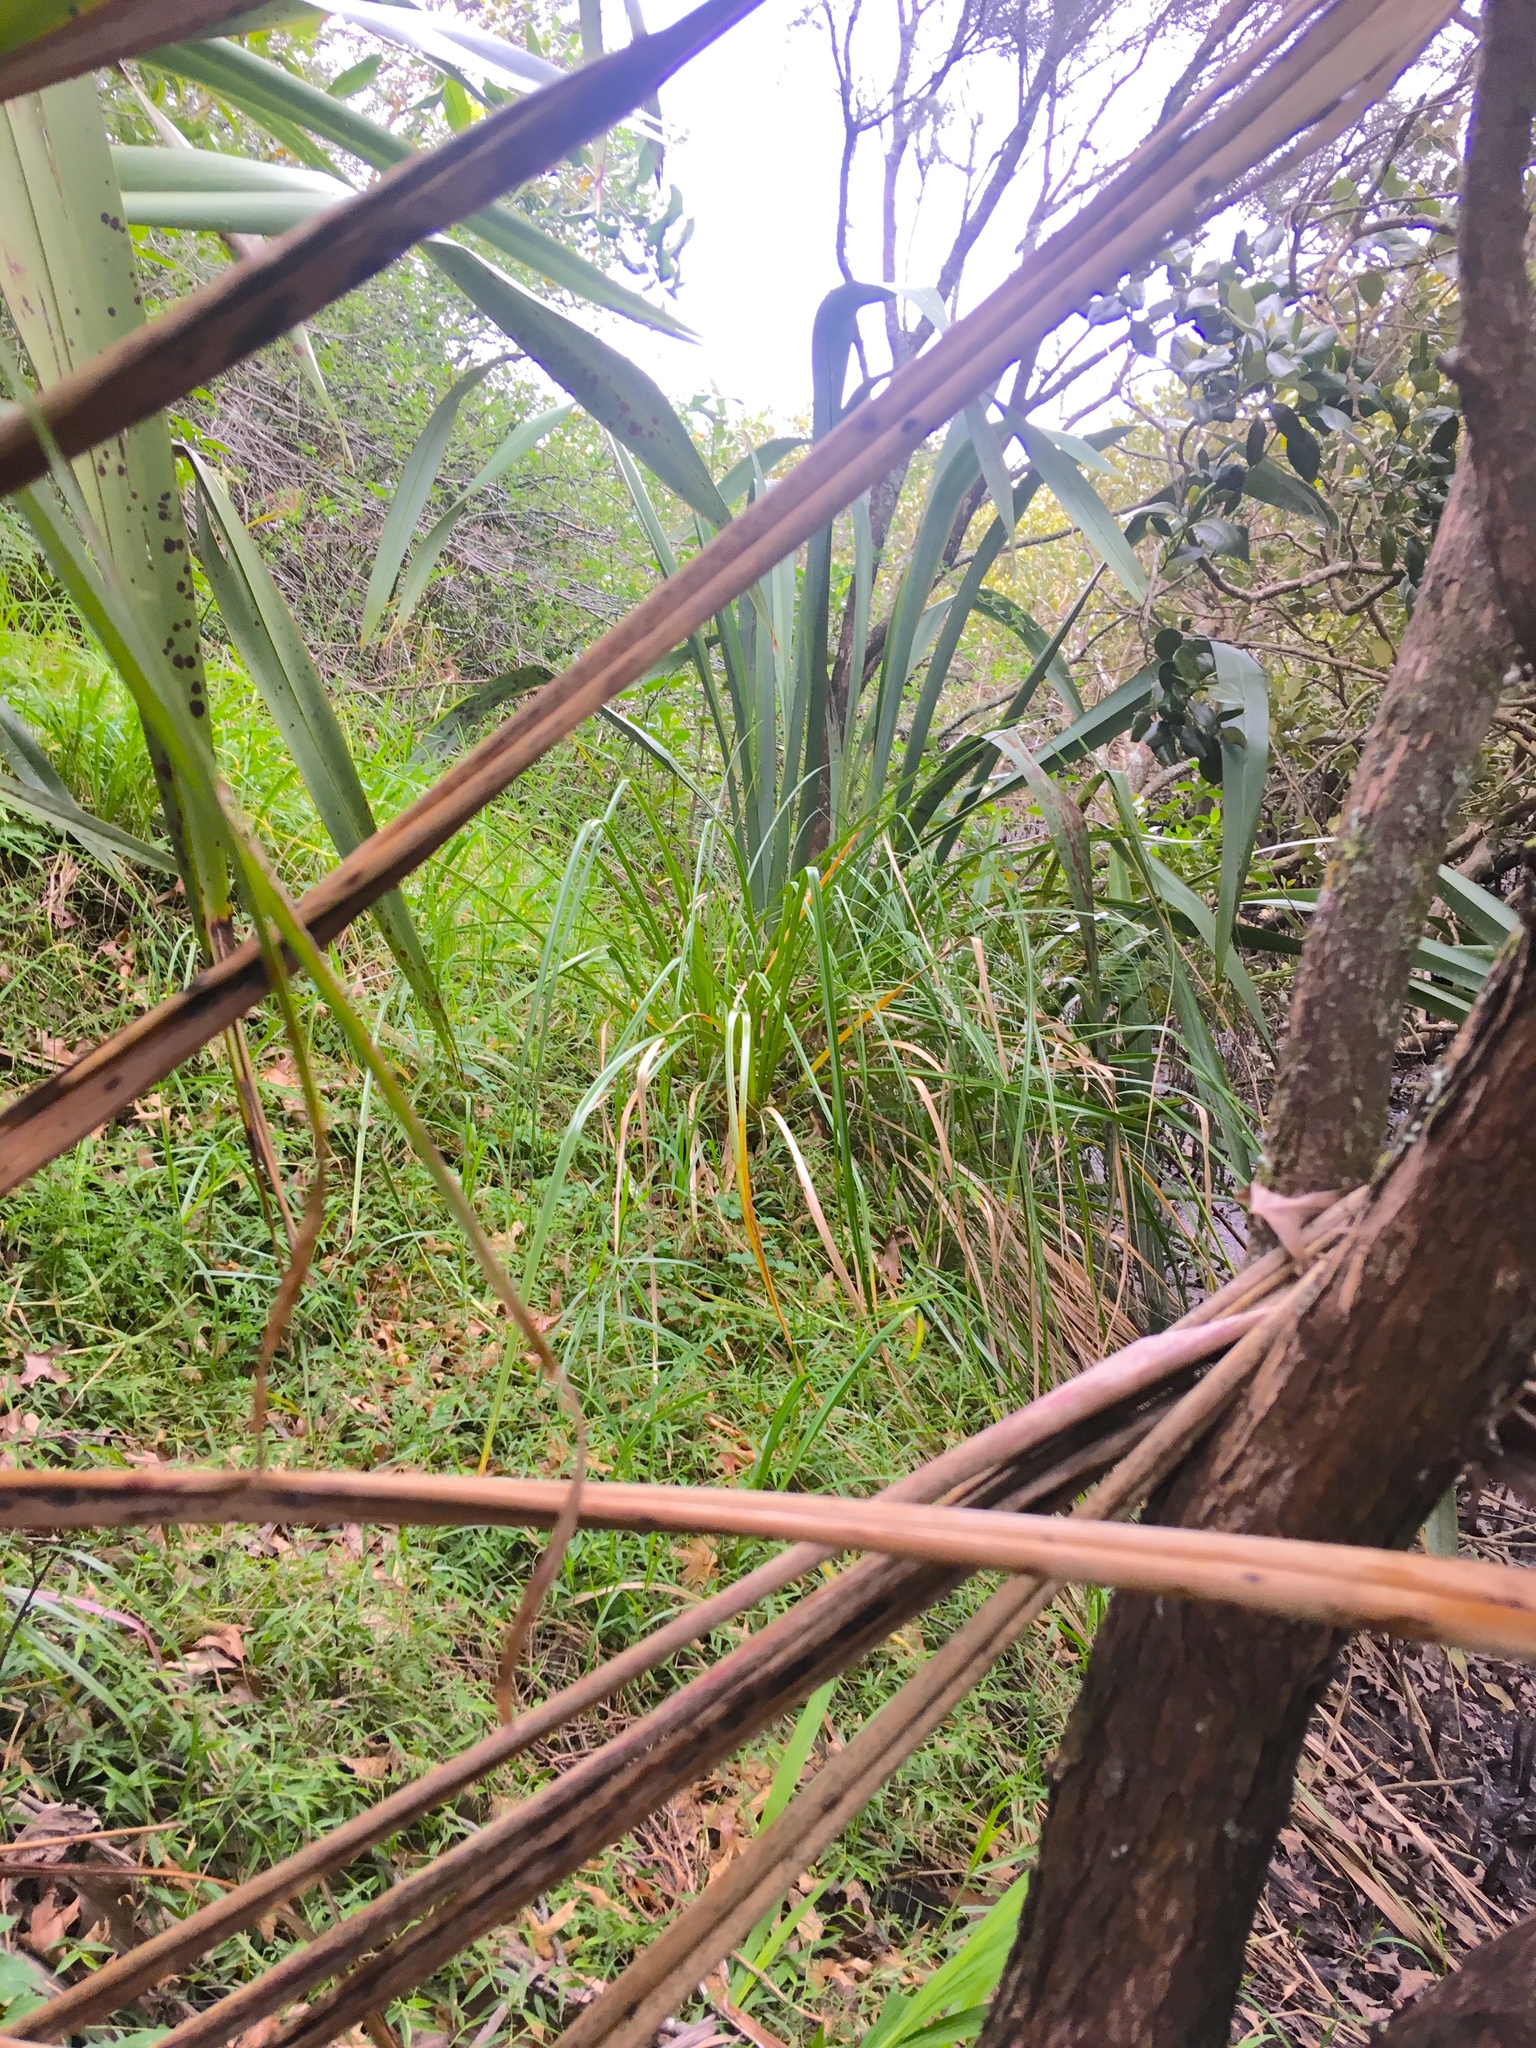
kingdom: Plantae
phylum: Tracheophyta
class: Liliopsida
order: Asparagales
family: Asphodelaceae
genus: Phormium
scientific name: Phormium tenax
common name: New zealand flax
